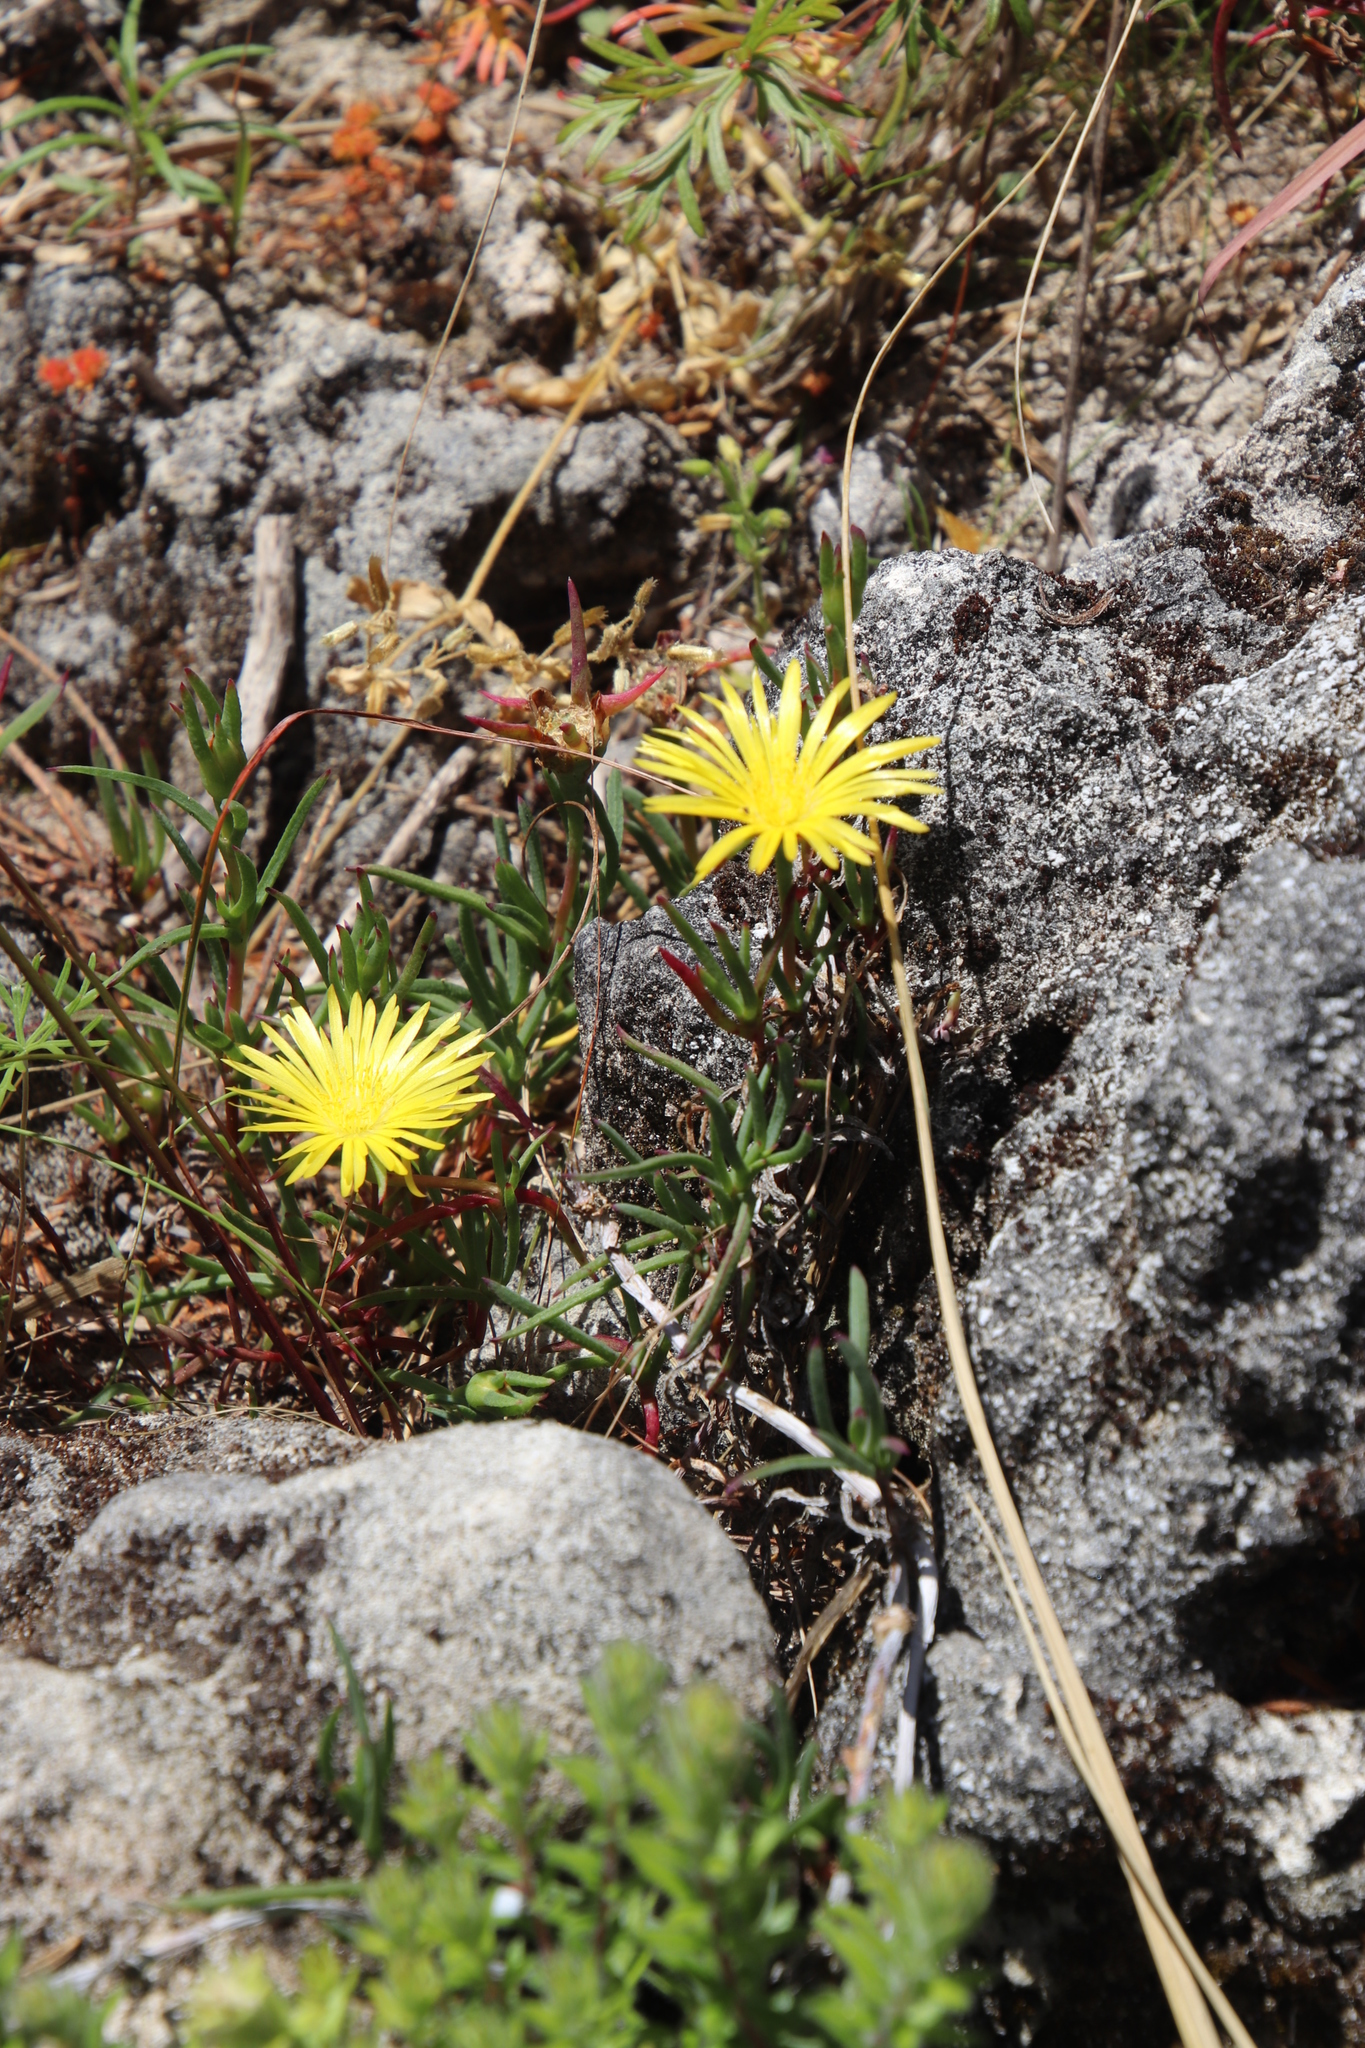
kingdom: Plantae
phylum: Tracheophyta
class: Magnoliopsida
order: Caryophyllales
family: Aizoaceae
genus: Lampranthus
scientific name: Lampranthus bicolor
